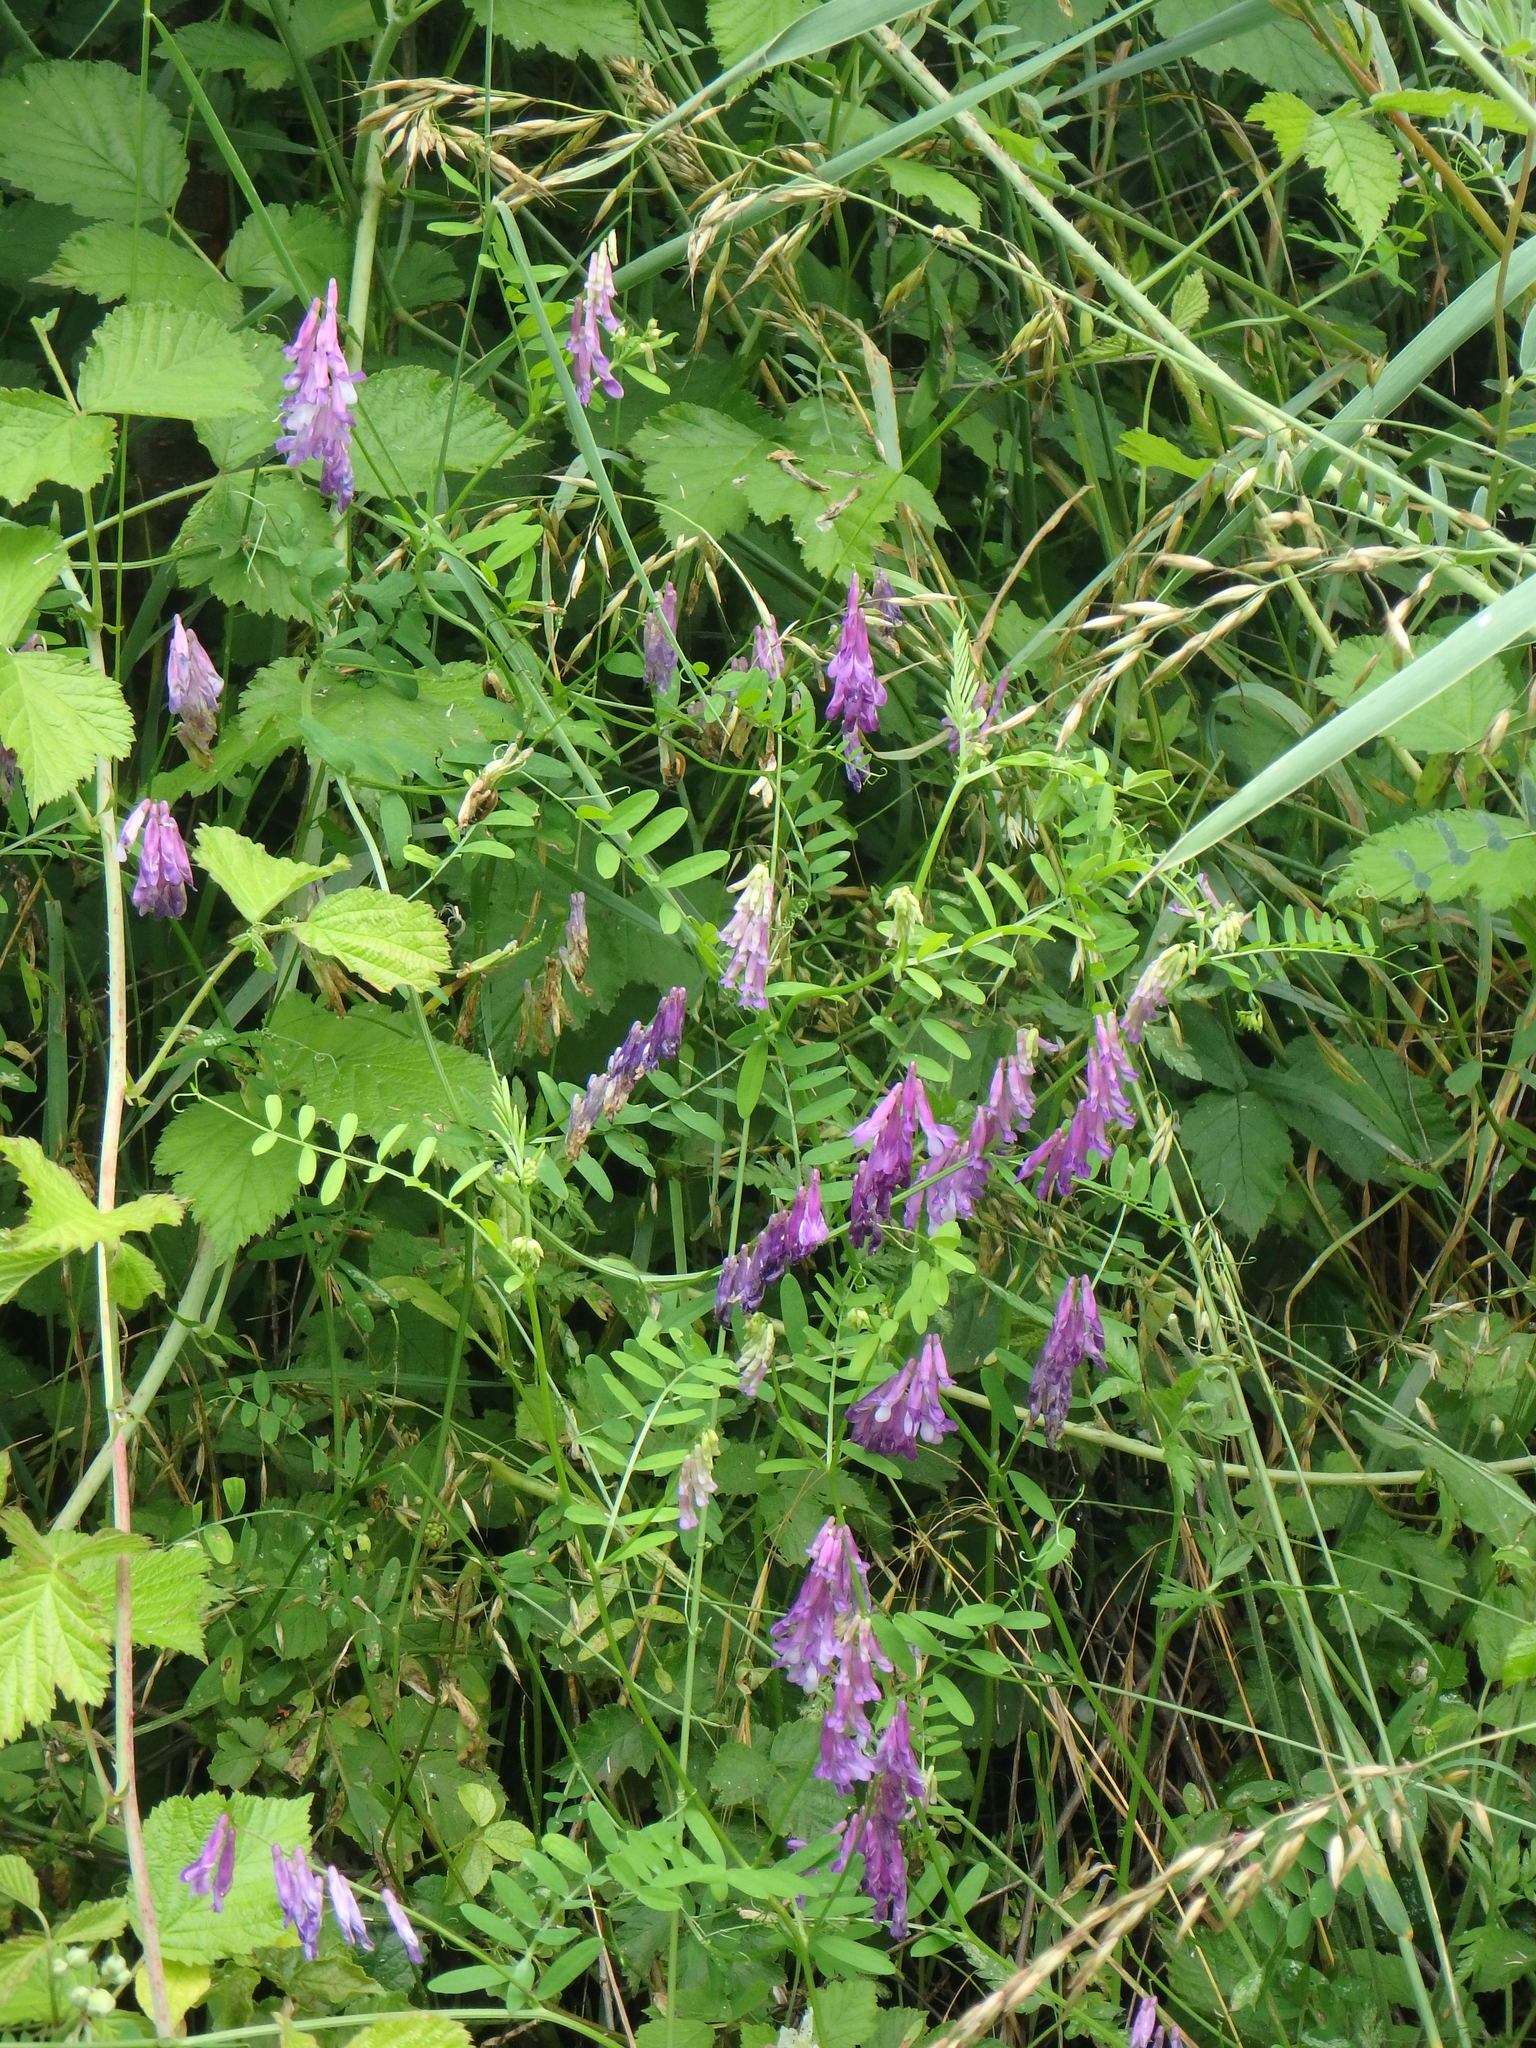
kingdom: Plantae
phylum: Tracheophyta
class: Magnoliopsida
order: Fabales
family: Fabaceae
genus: Vicia
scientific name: Vicia cracca
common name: Bird vetch
